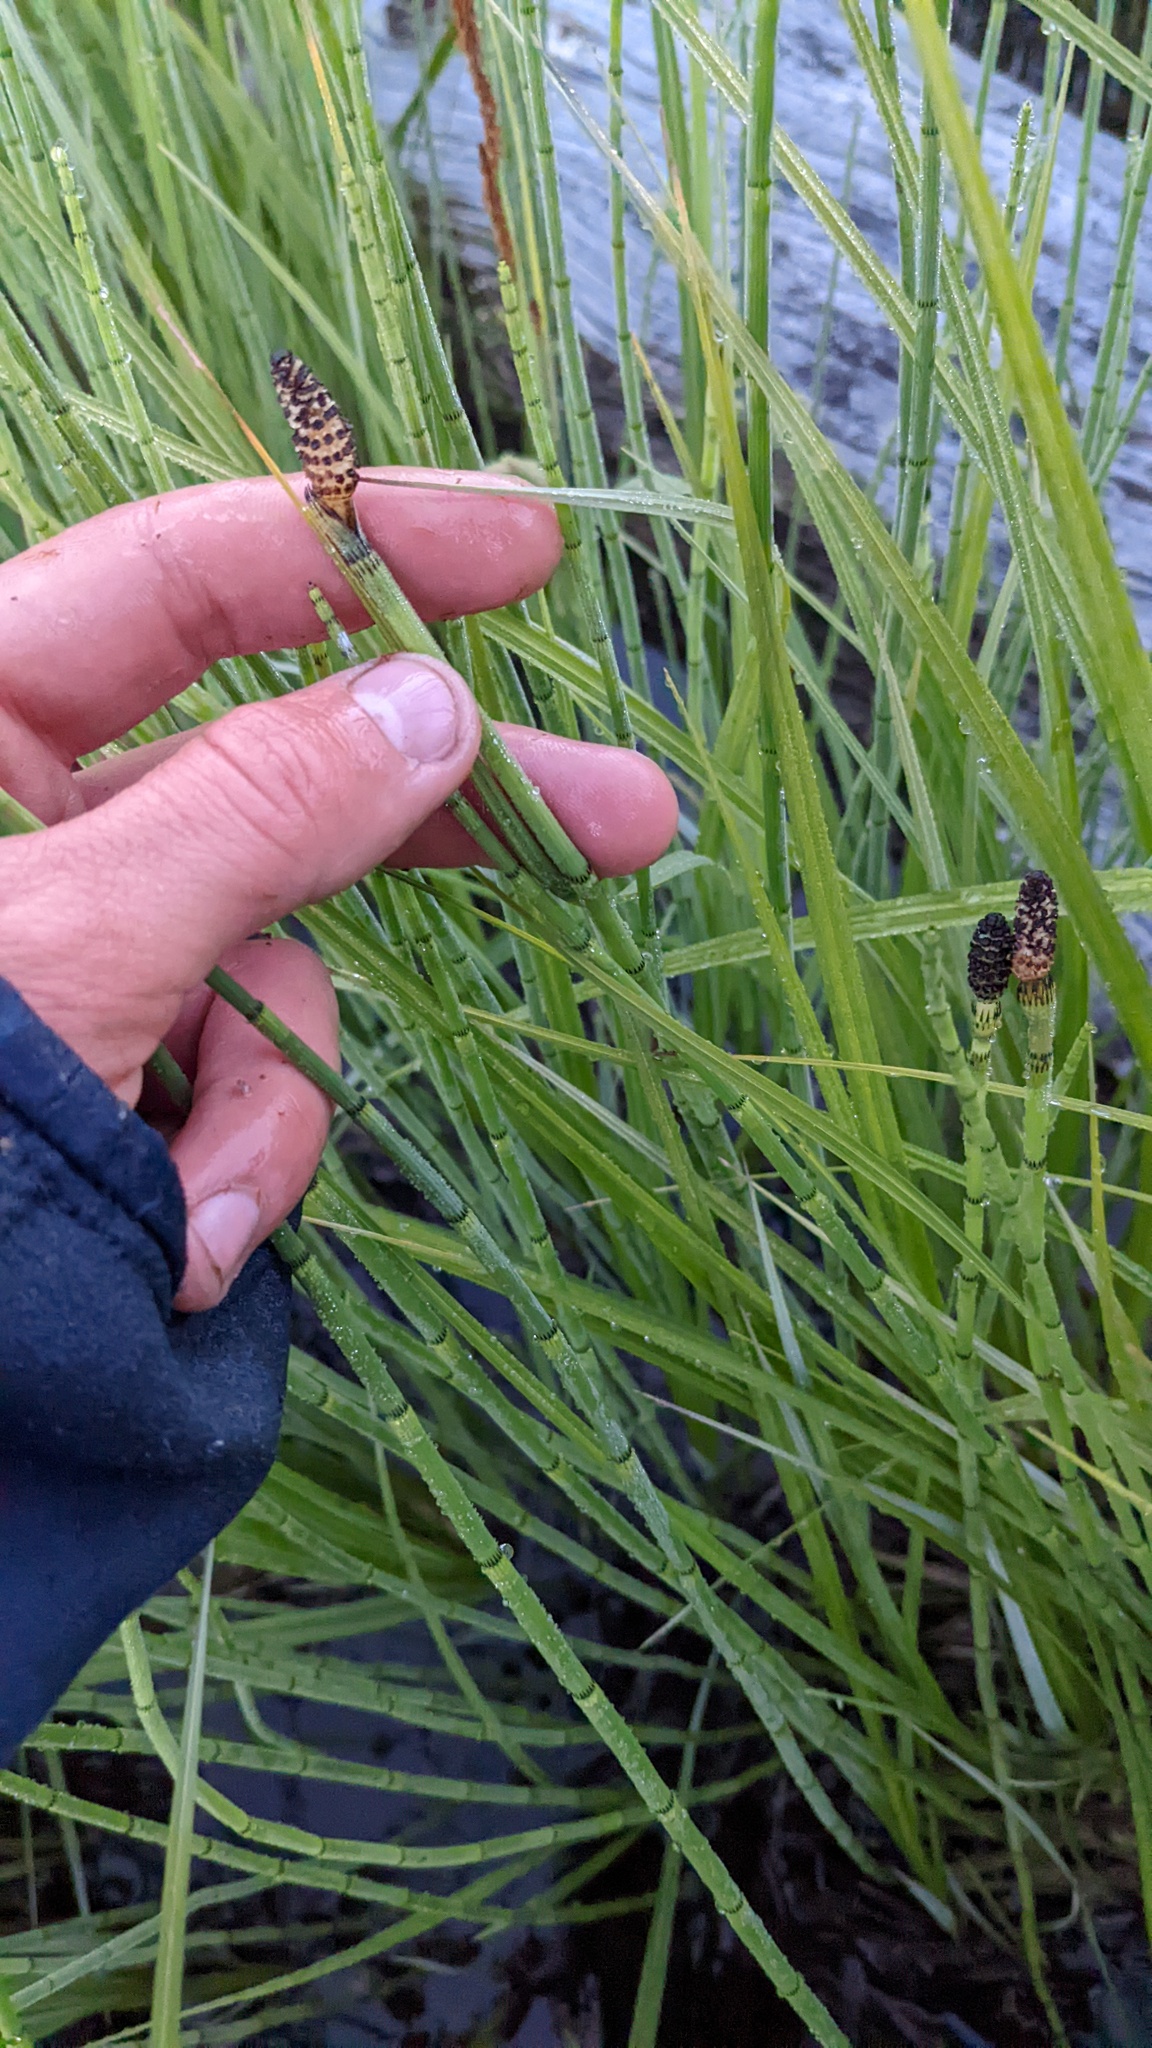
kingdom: Plantae
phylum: Tracheophyta
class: Polypodiopsida
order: Equisetales
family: Equisetaceae
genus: Equisetum
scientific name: Equisetum fluviatile
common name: Water horsetail
